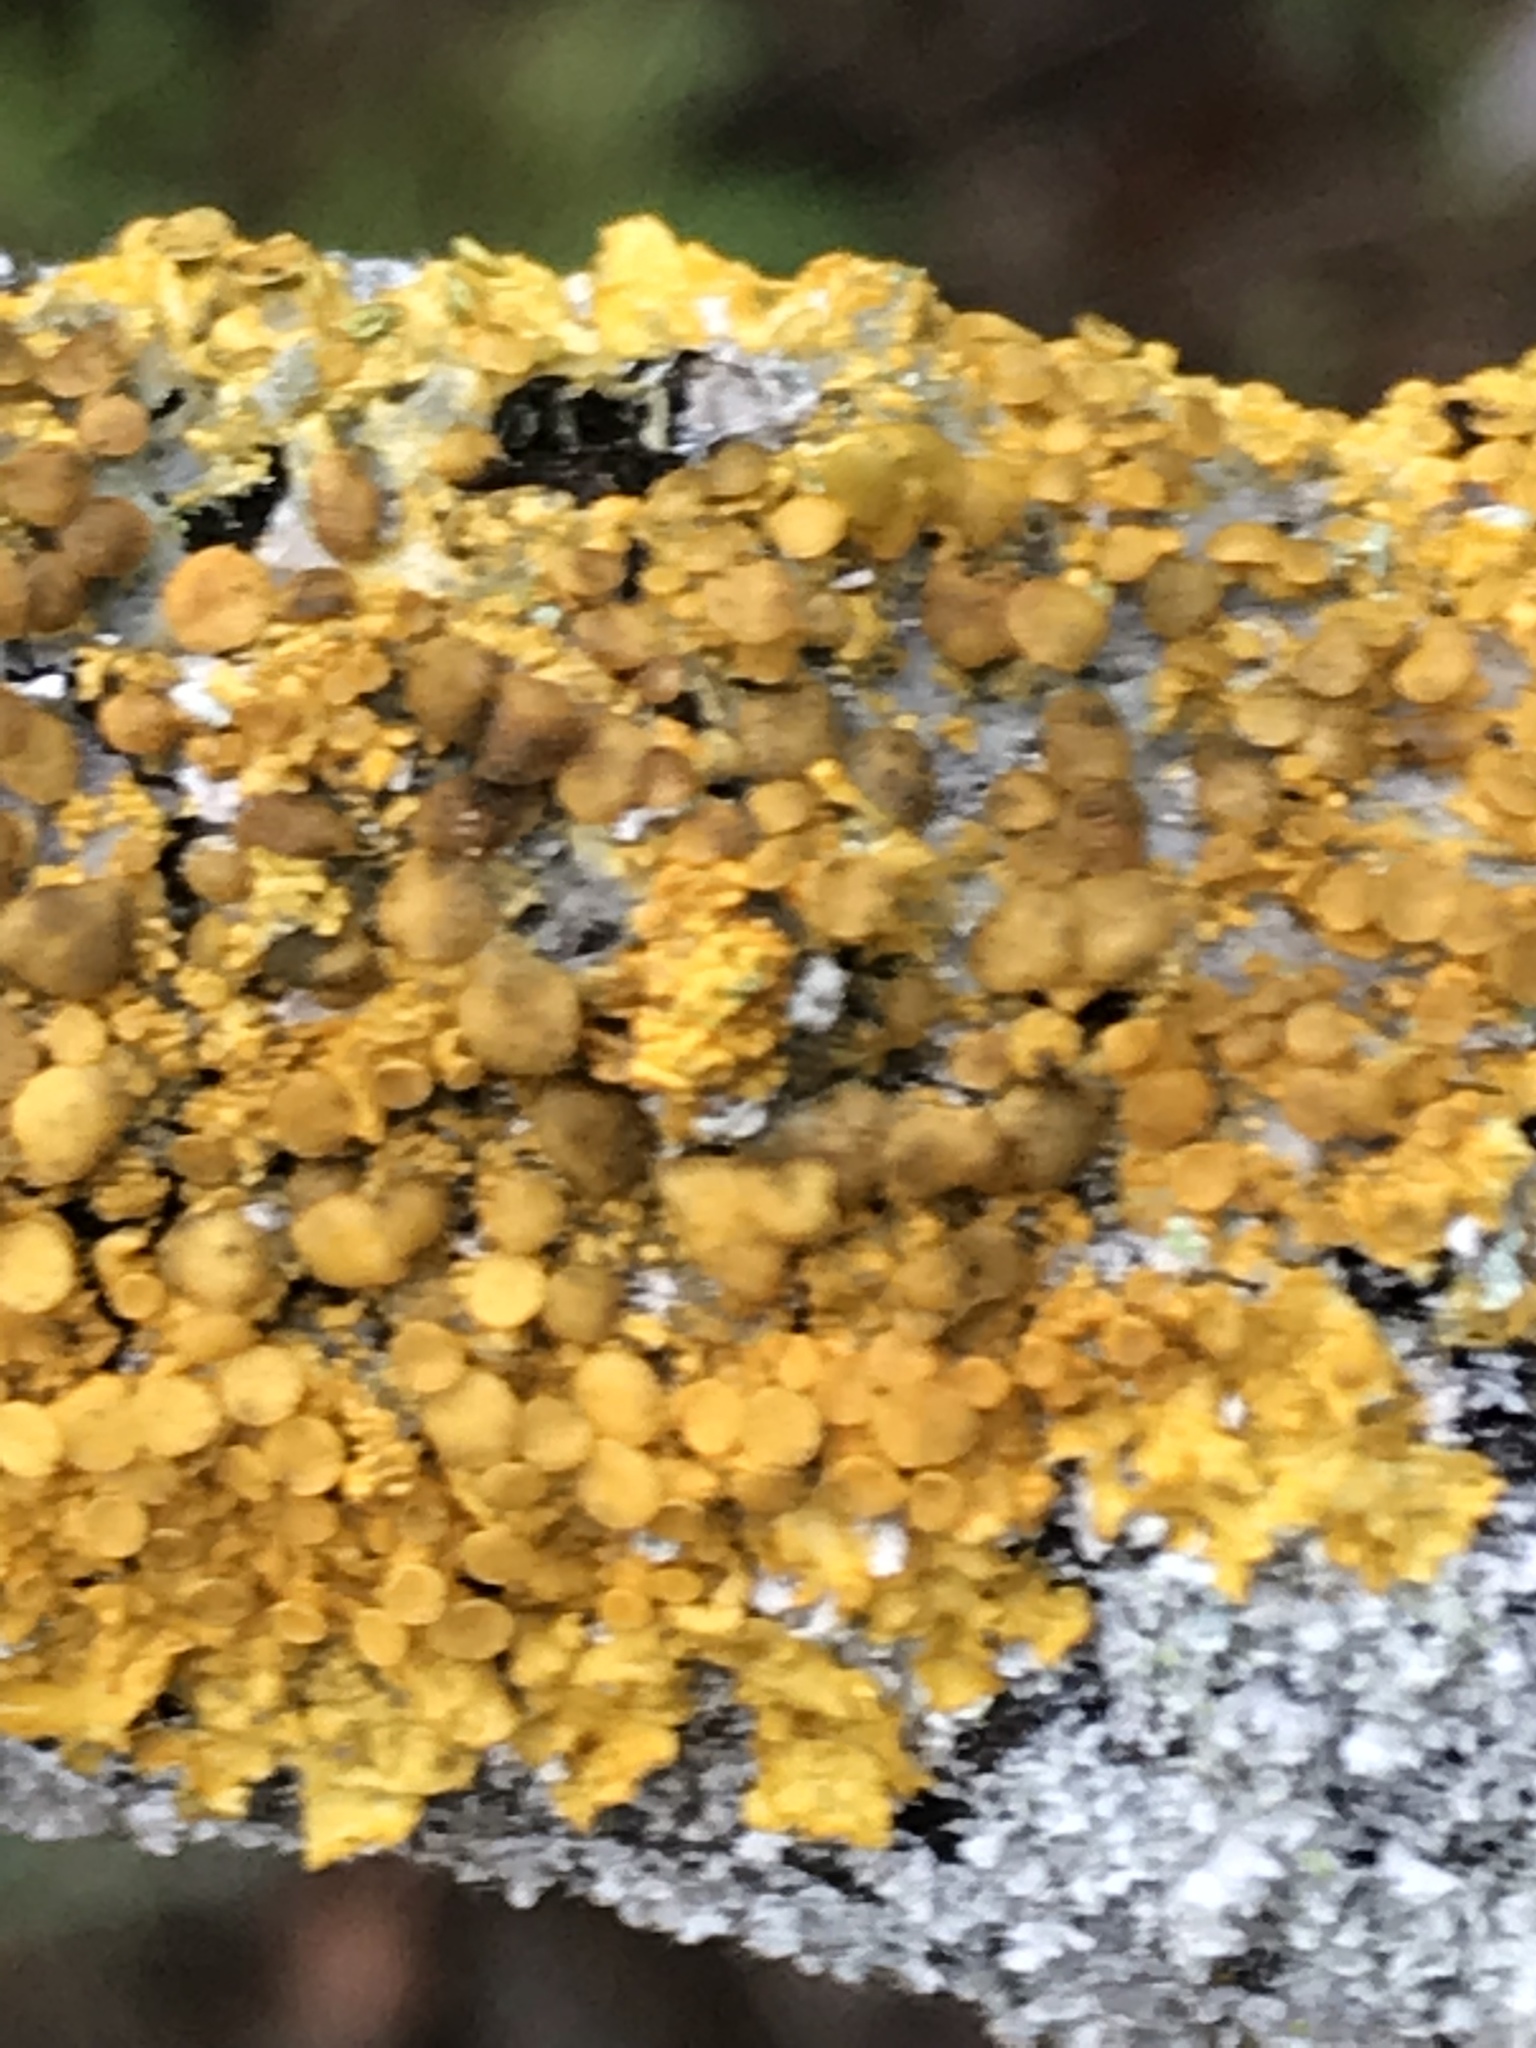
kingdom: Fungi
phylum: Ascomycota
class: Lecanoromycetes
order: Teloschistales
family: Teloschistaceae
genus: Xanthoria
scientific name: Xanthoria parietina
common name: Common orange lichen
